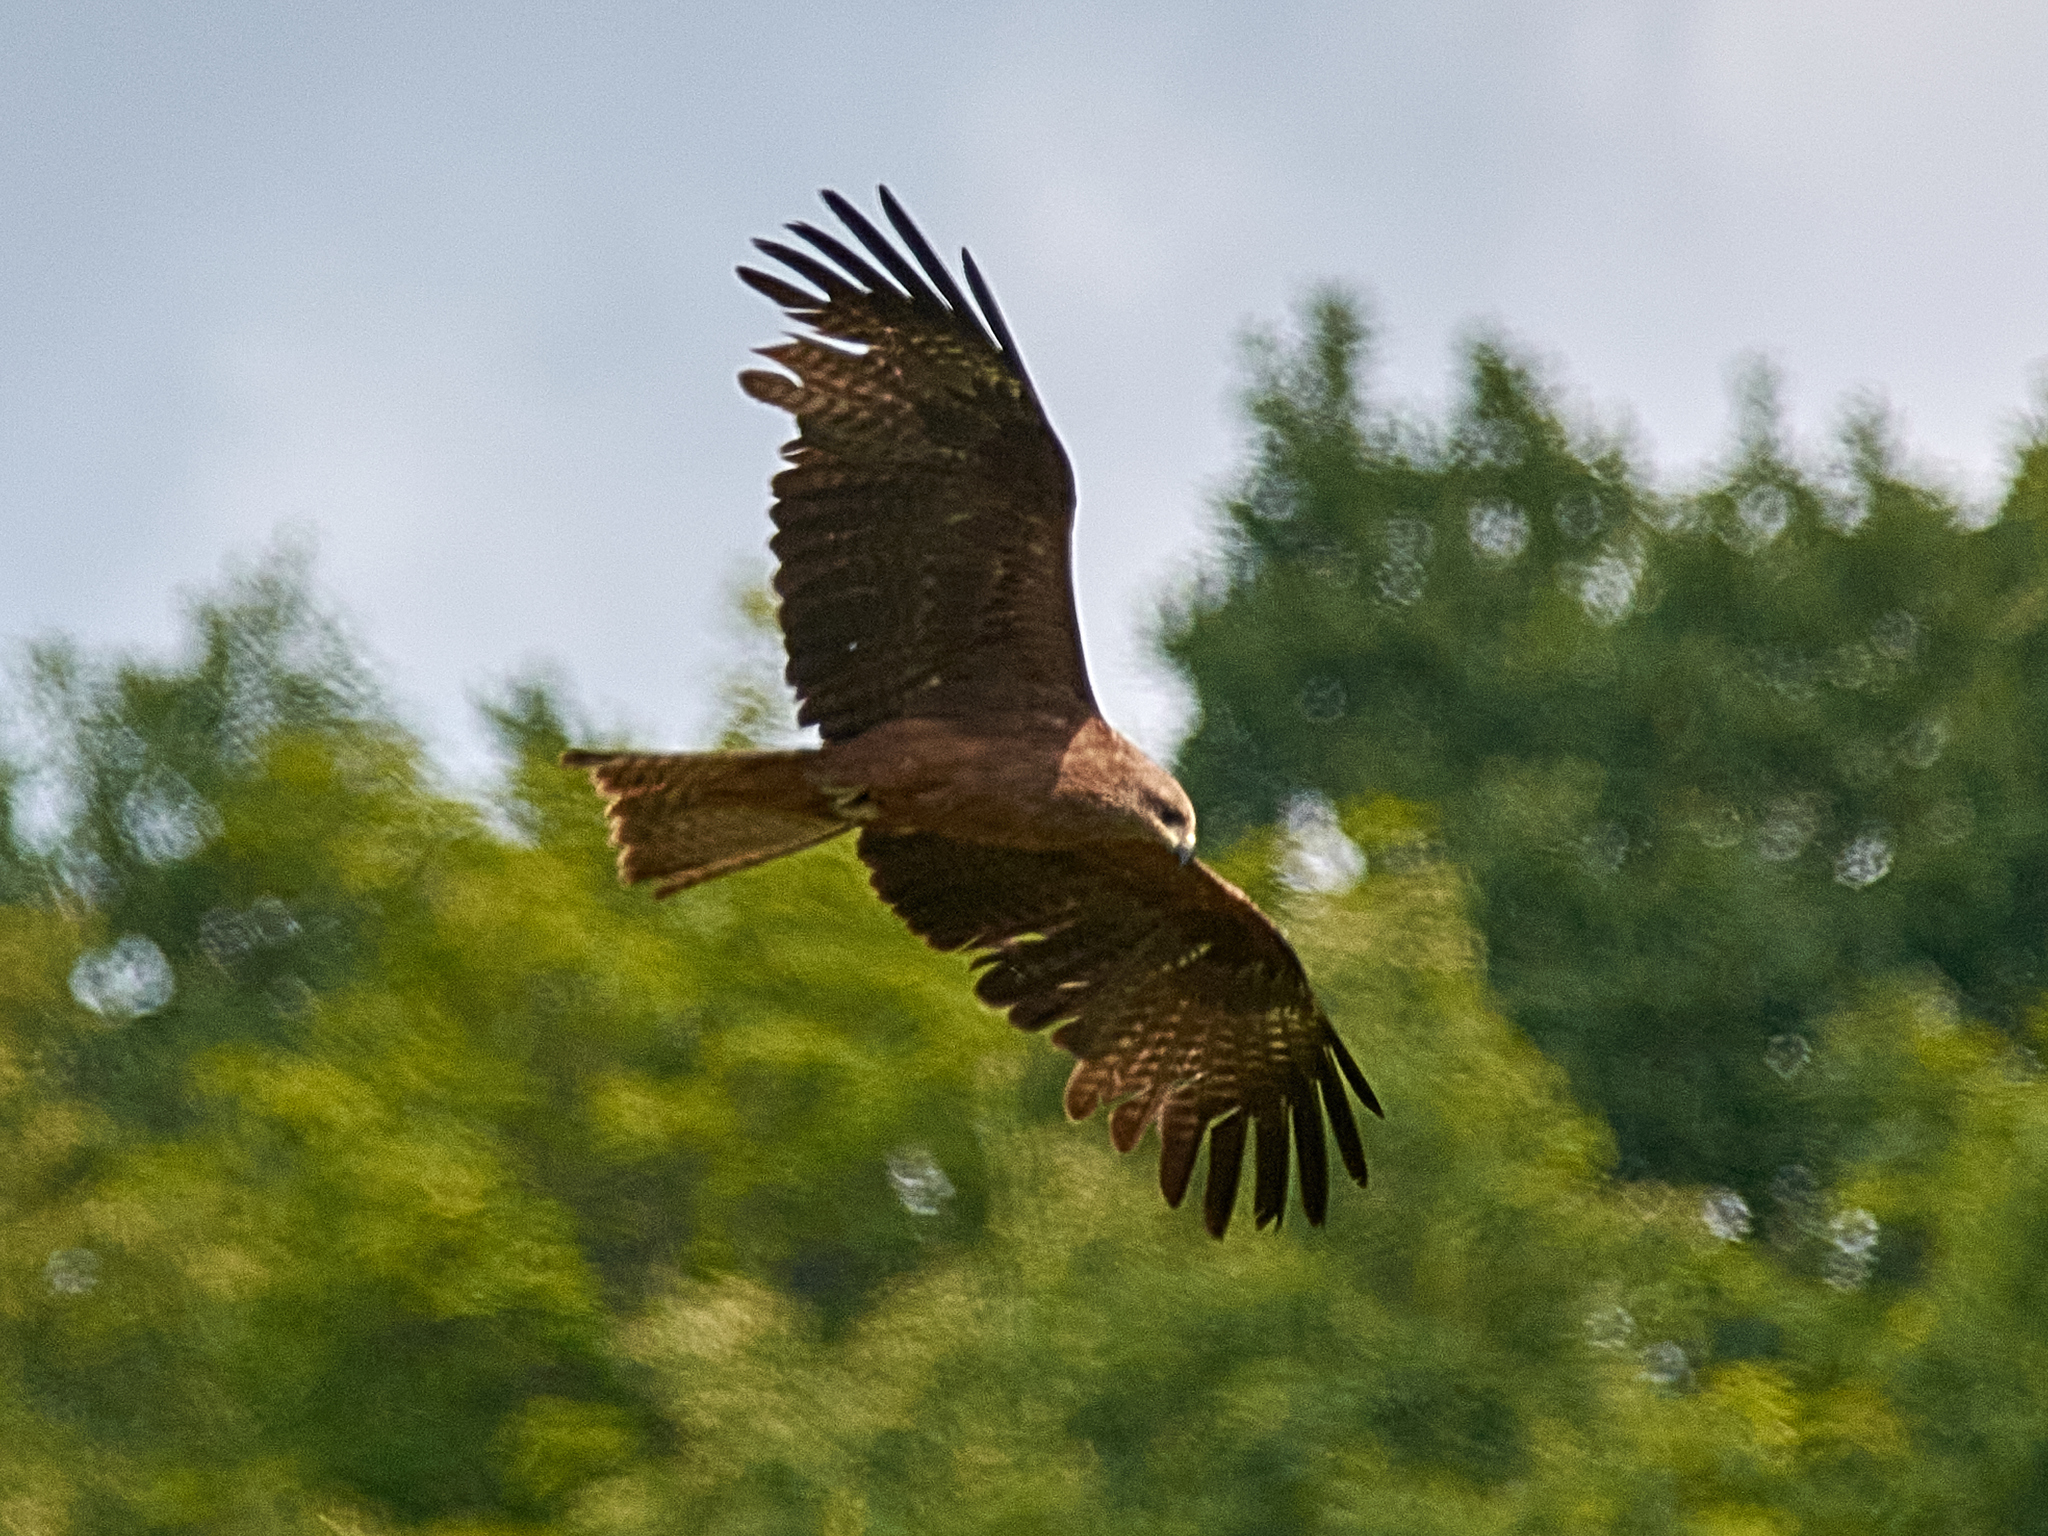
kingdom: Animalia
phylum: Chordata
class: Aves
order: Accipitriformes
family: Accipitridae
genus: Milvus
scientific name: Milvus migrans
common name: Black kite
